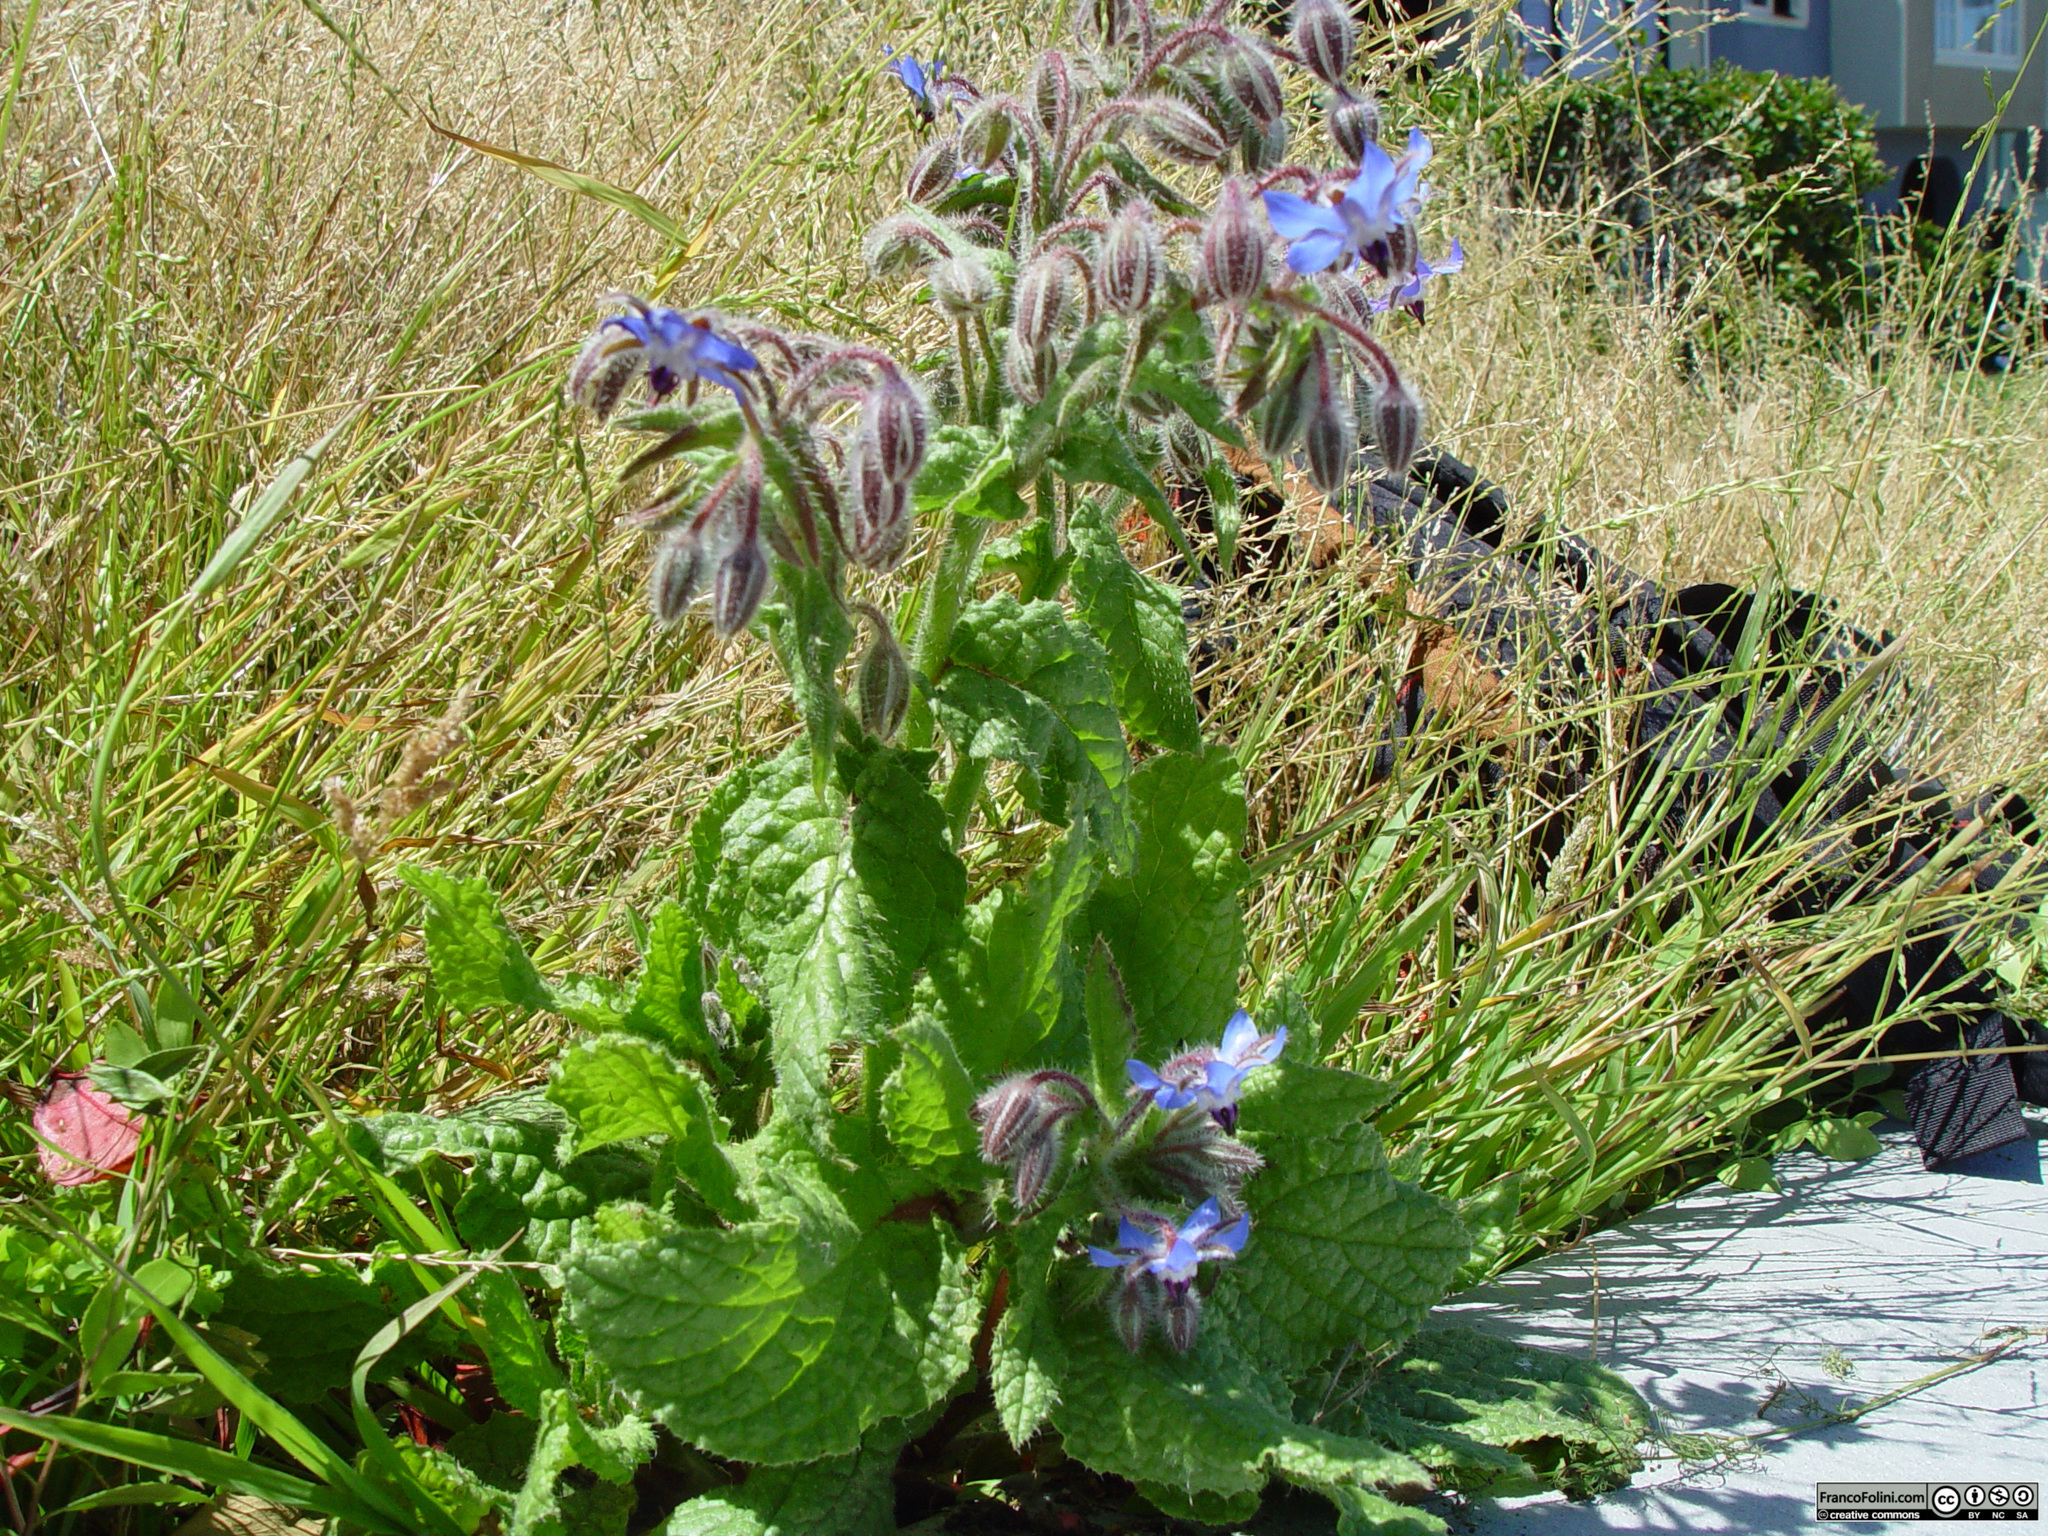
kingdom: Plantae
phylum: Tracheophyta
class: Magnoliopsida
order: Boraginales
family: Boraginaceae
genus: Borago
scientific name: Borago officinalis
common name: Borage
